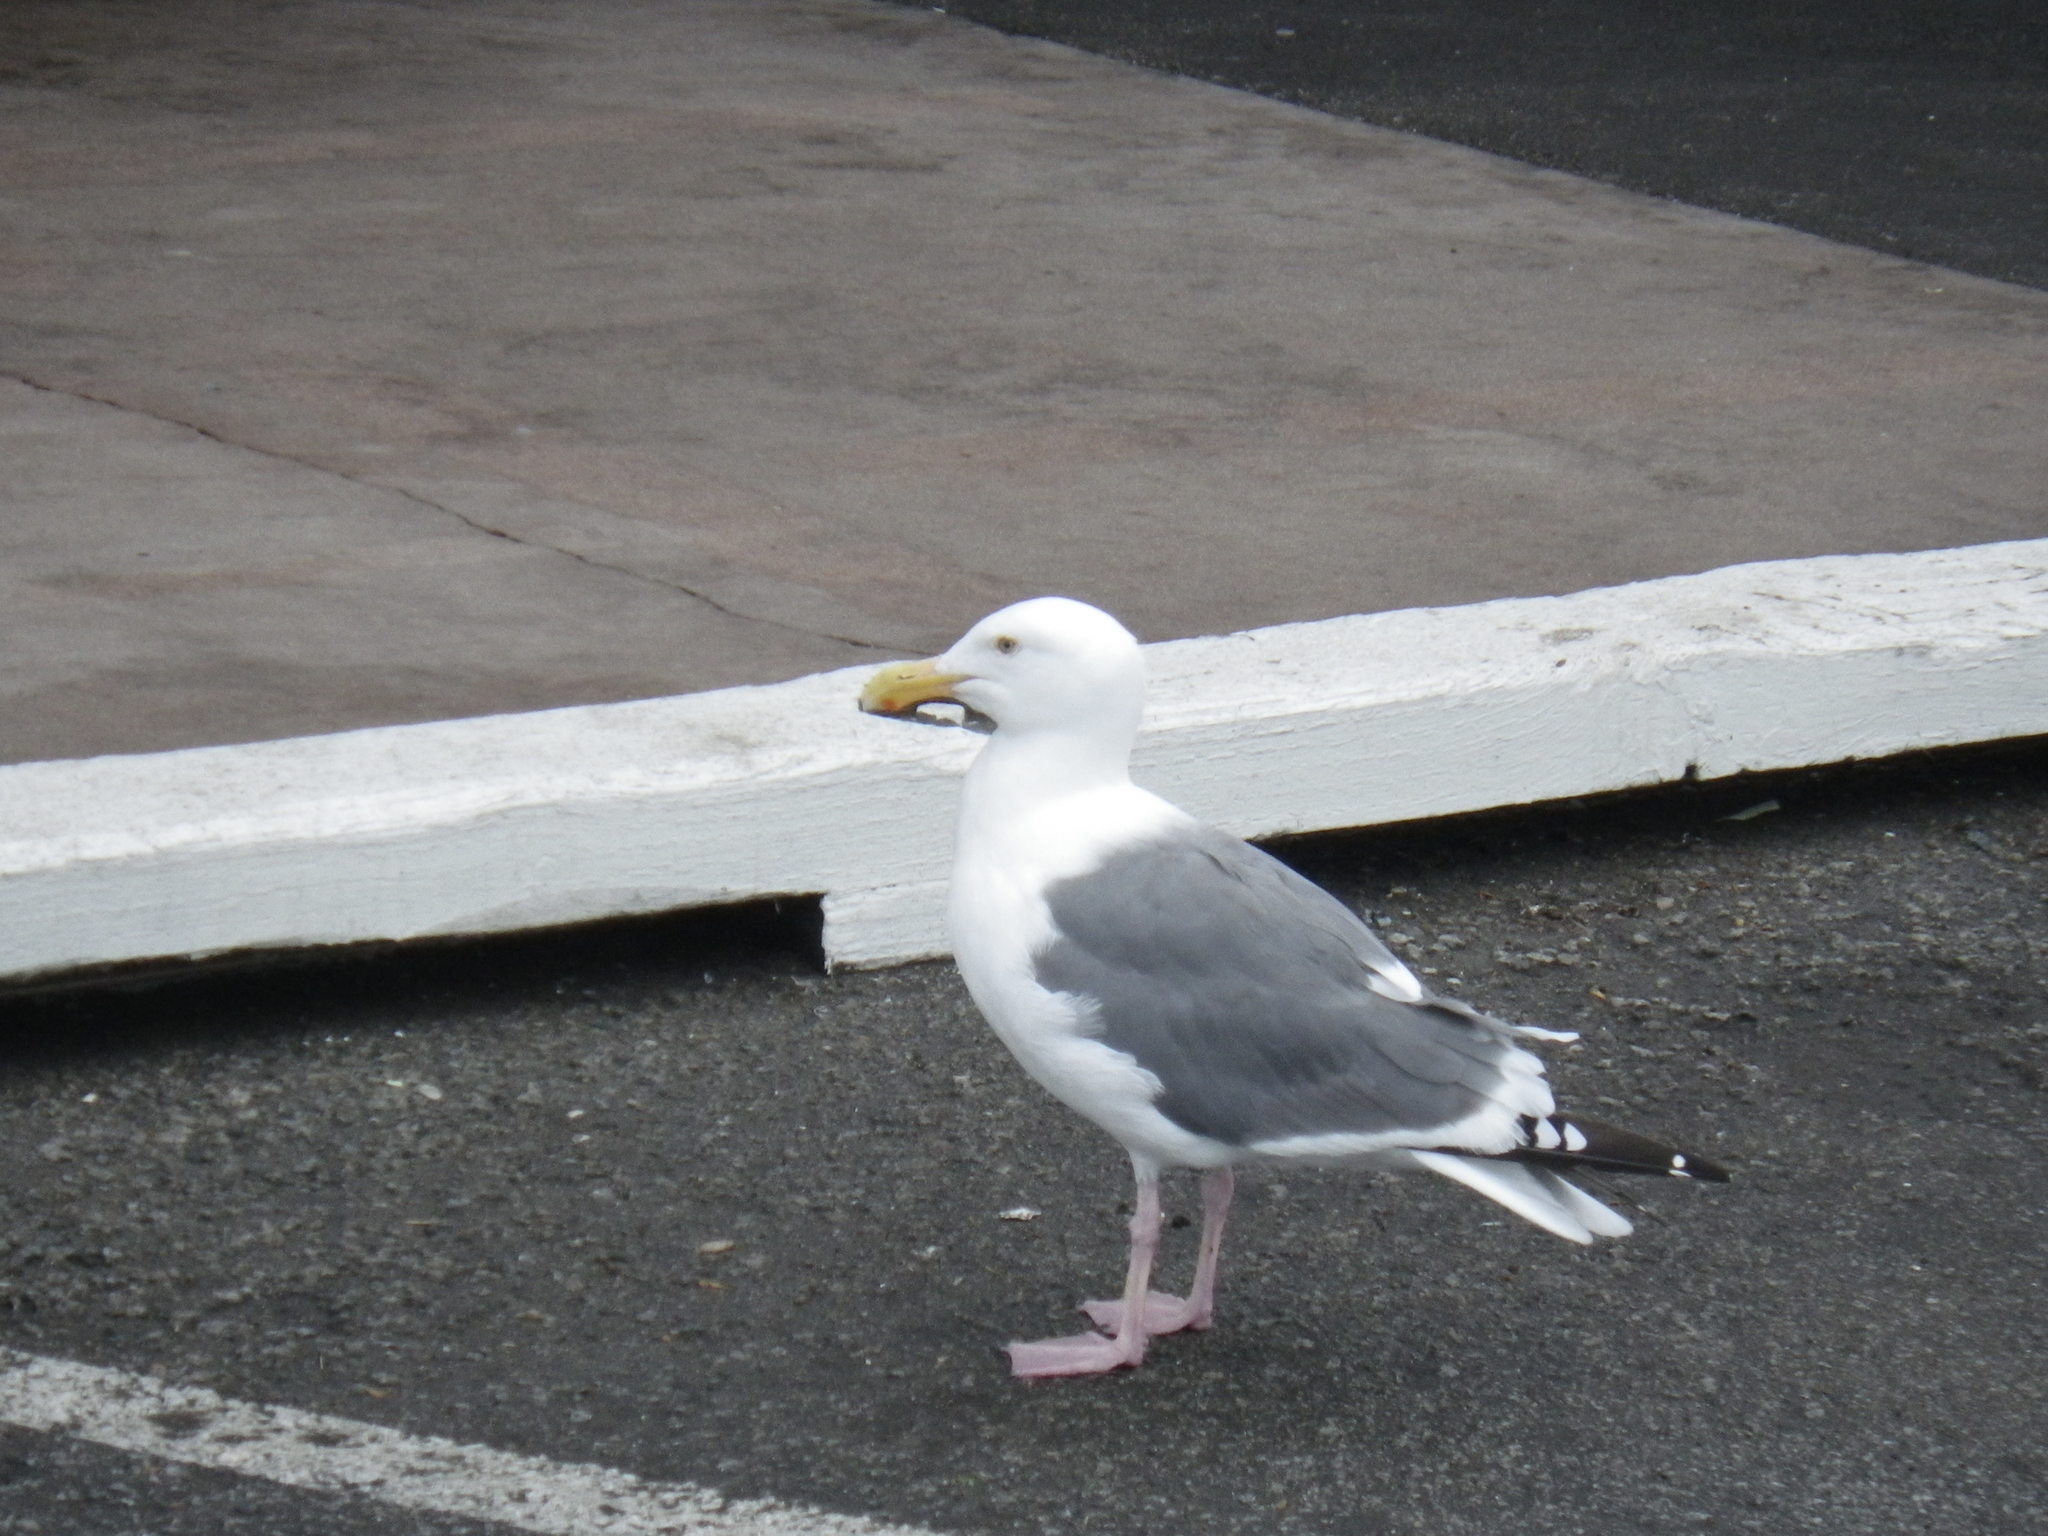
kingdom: Animalia
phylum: Chordata
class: Aves
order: Charadriiformes
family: Laridae
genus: Larus
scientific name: Larus occidentalis
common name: Western gull
